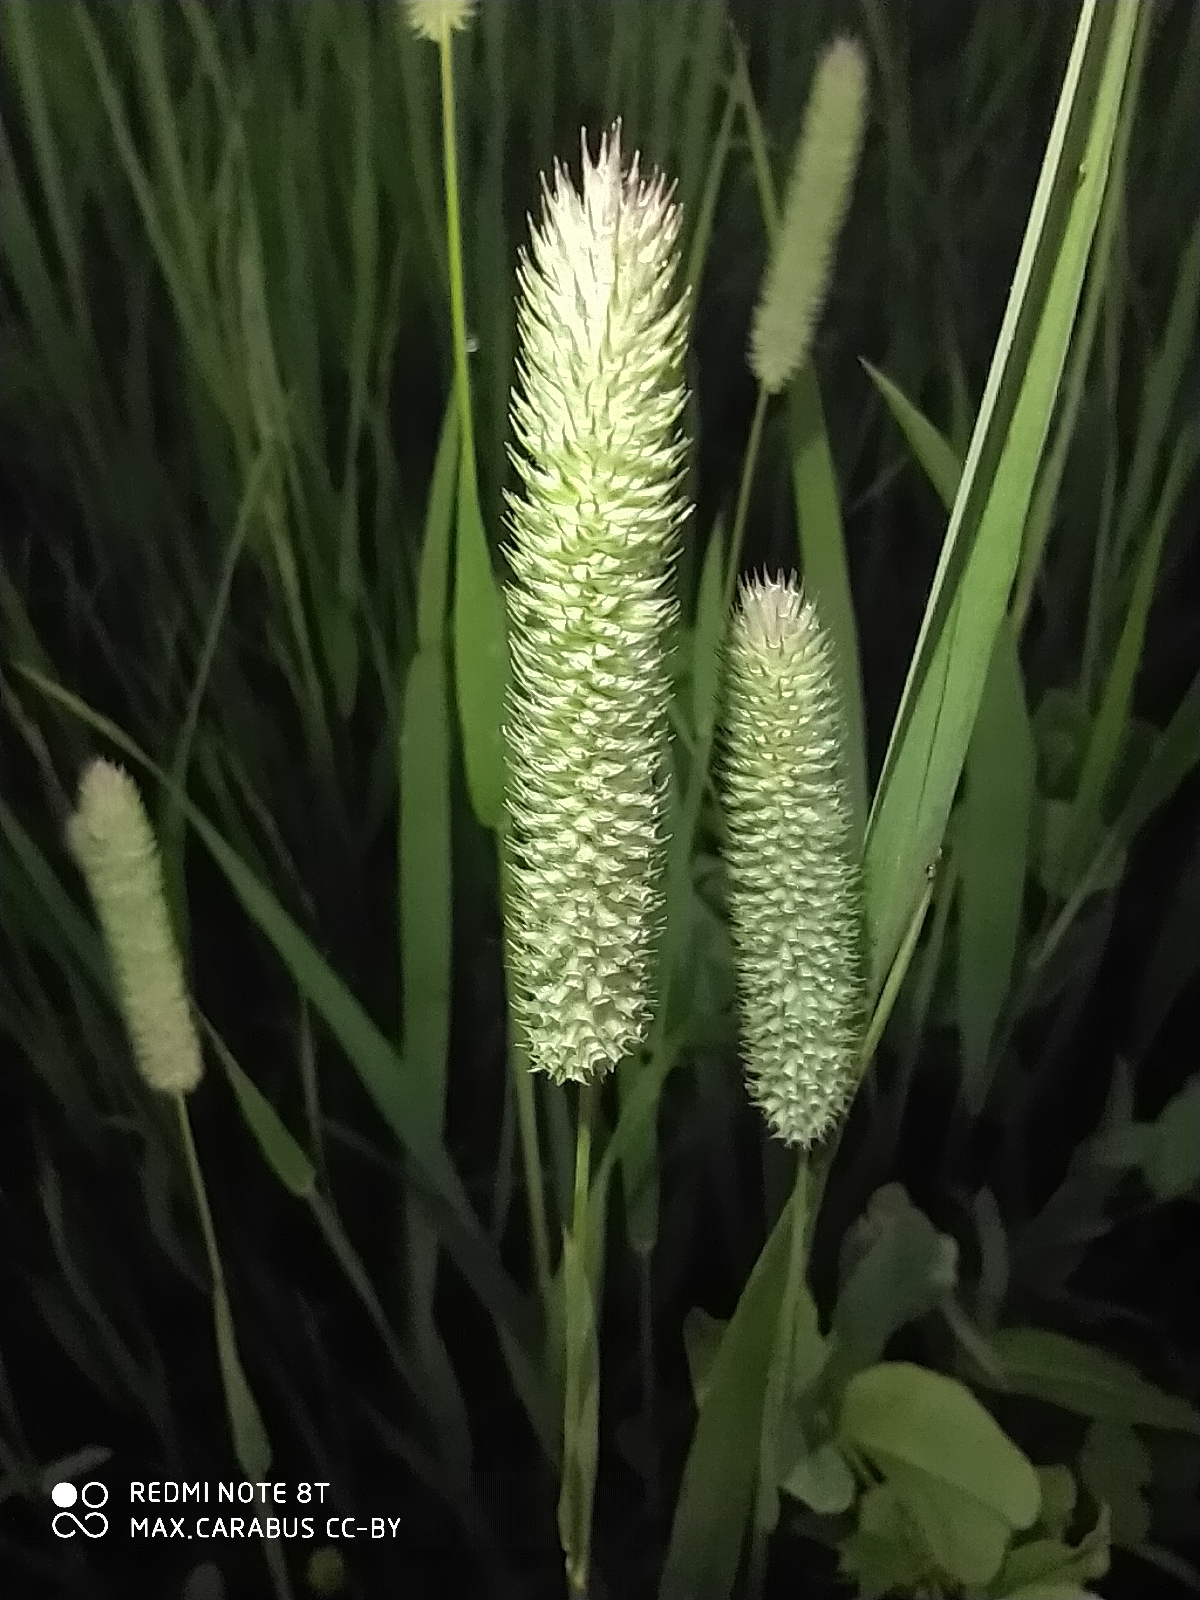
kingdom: Plantae
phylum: Tracheophyta
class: Liliopsida
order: Poales
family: Poaceae
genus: Phleum
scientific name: Phleum pratense
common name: Timothy grass
